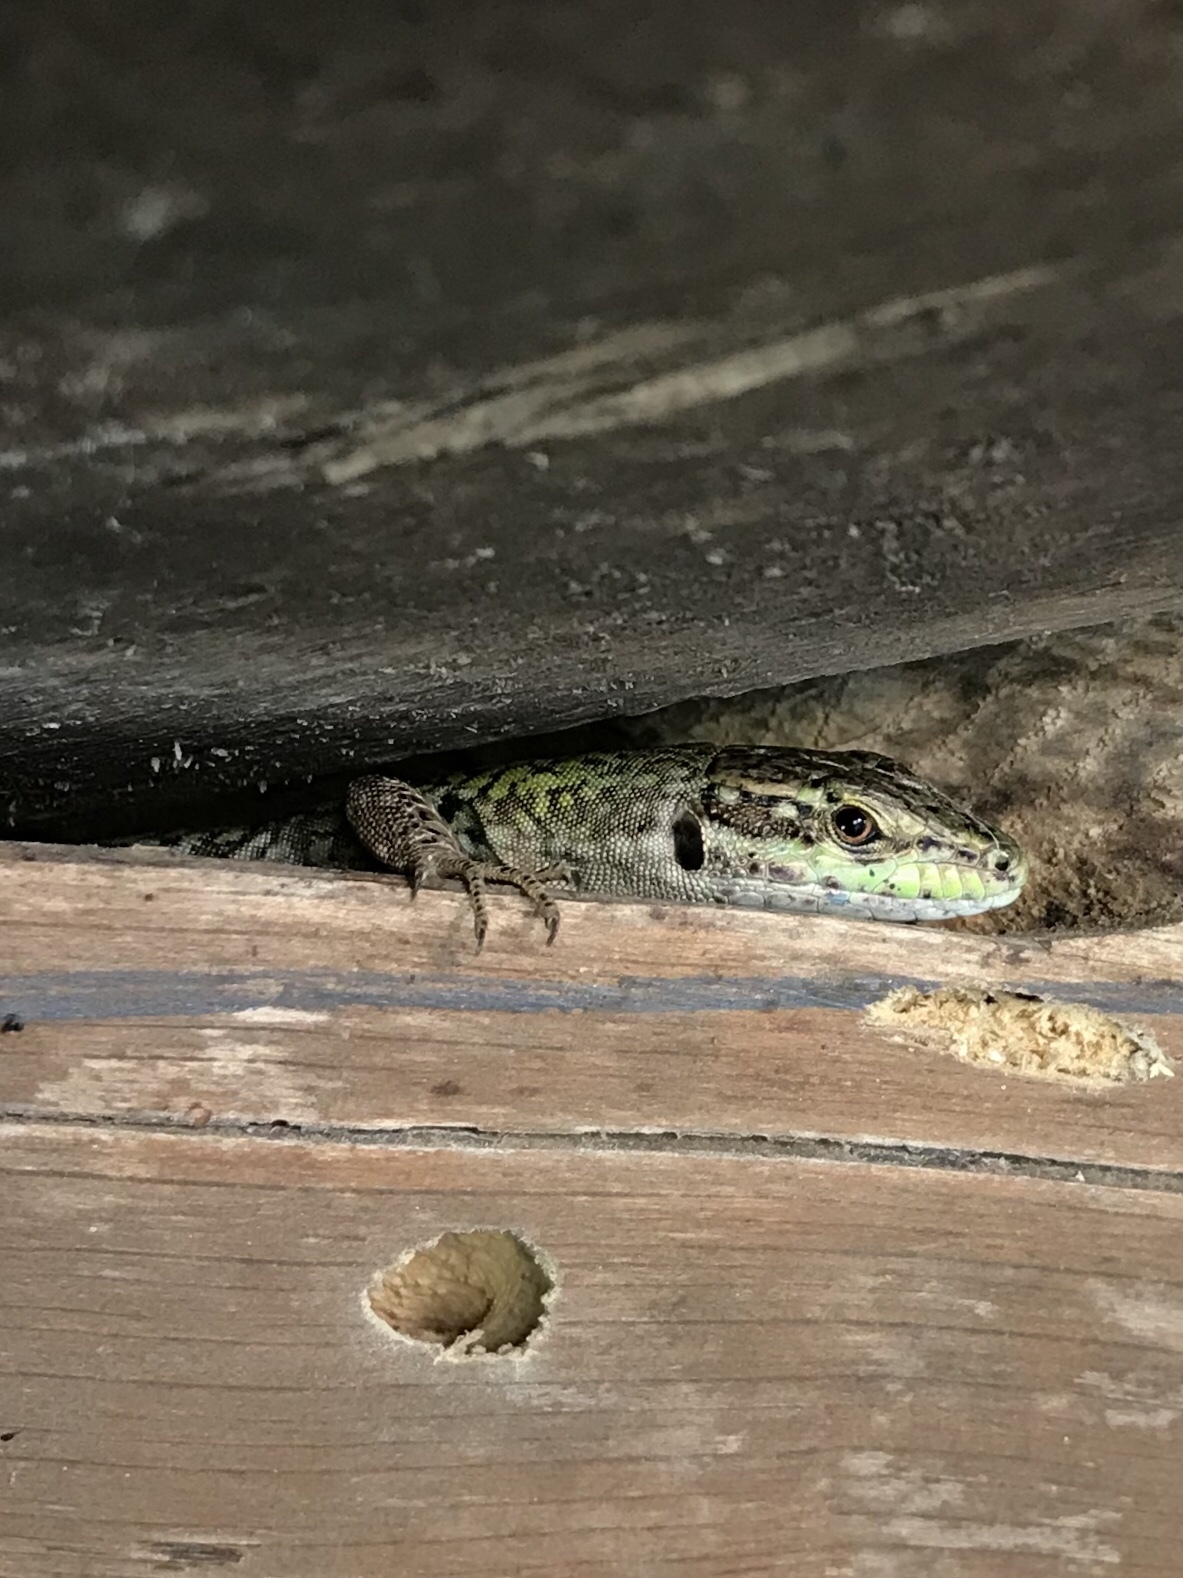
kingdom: Animalia
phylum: Chordata
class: Squamata
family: Lacertidae
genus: Podarcis
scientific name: Podarcis siculus
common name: Italian wall lizard
